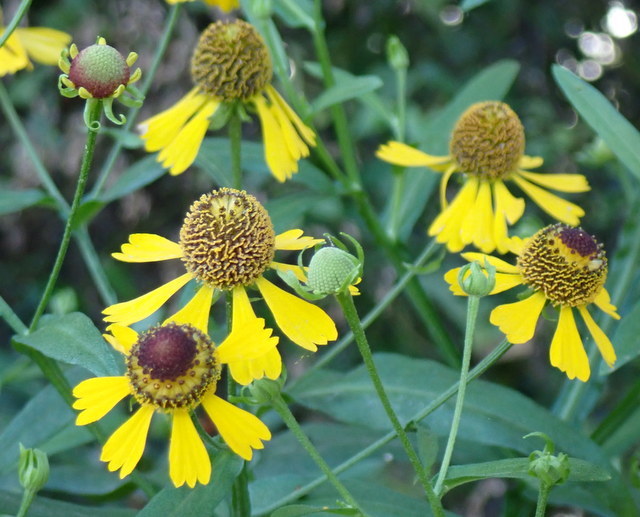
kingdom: Plantae
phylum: Tracheophyta
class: Magnoliopsida
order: Asterales
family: Asteraceae
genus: Helenium
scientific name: Helenium flexuosum
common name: Naked-flowered sneezeweed
